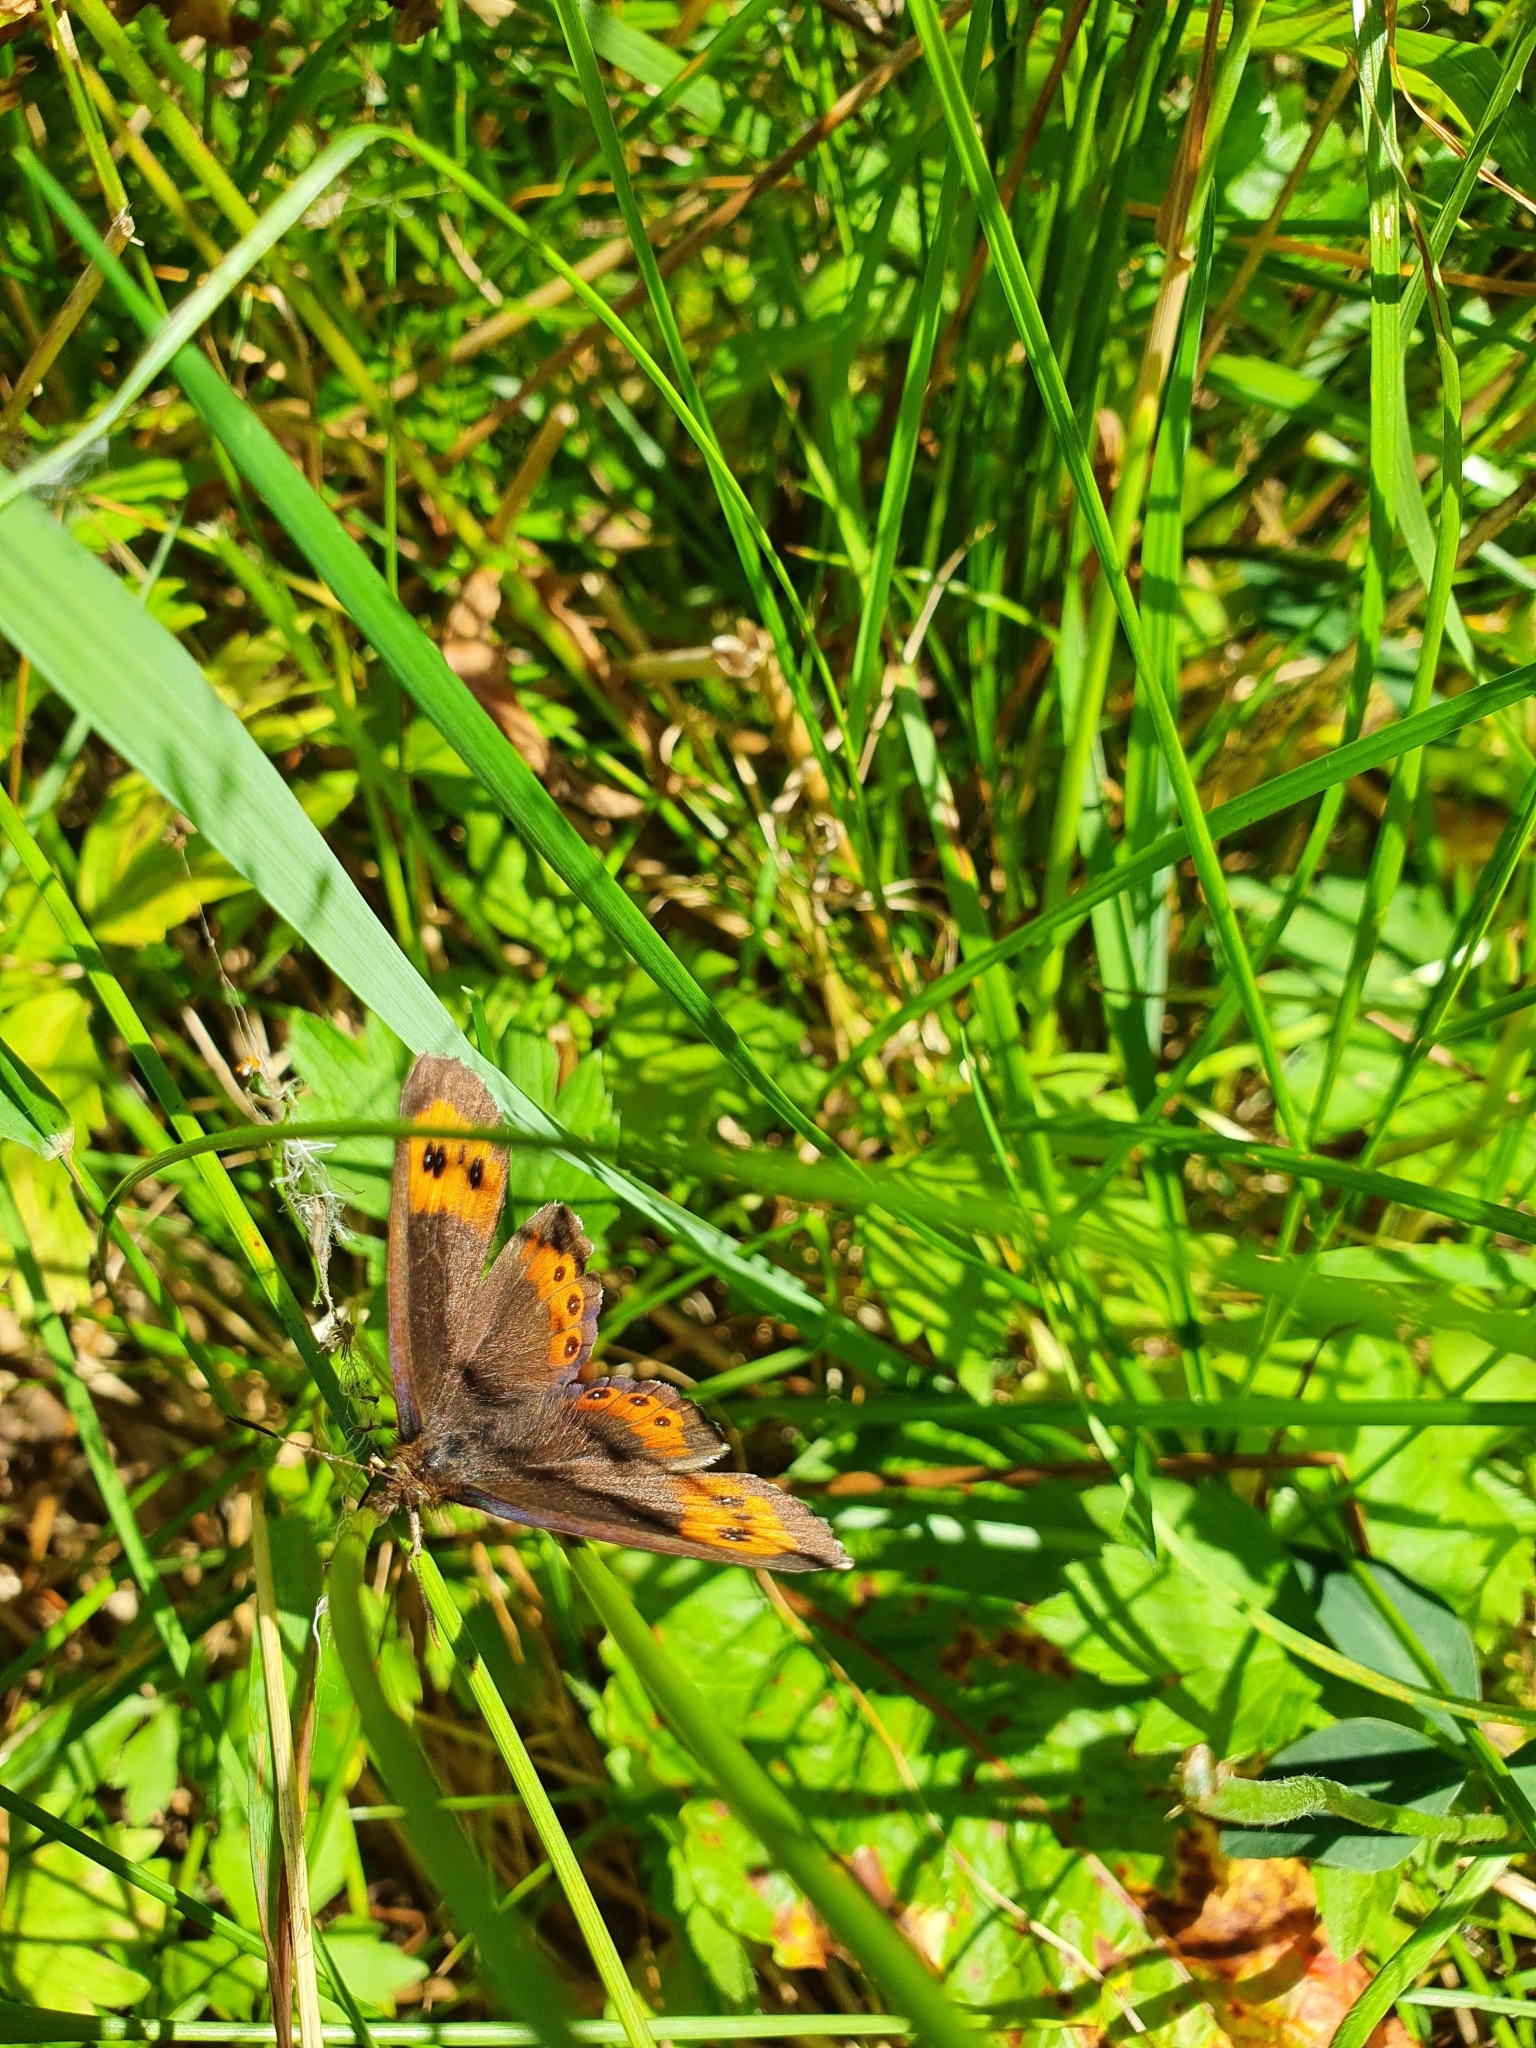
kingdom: Animalia
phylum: Arthropoda
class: Insecta
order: Lepidoptera
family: Nymphalidae
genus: Erebia
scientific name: Erebia ligea
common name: Arran brown
